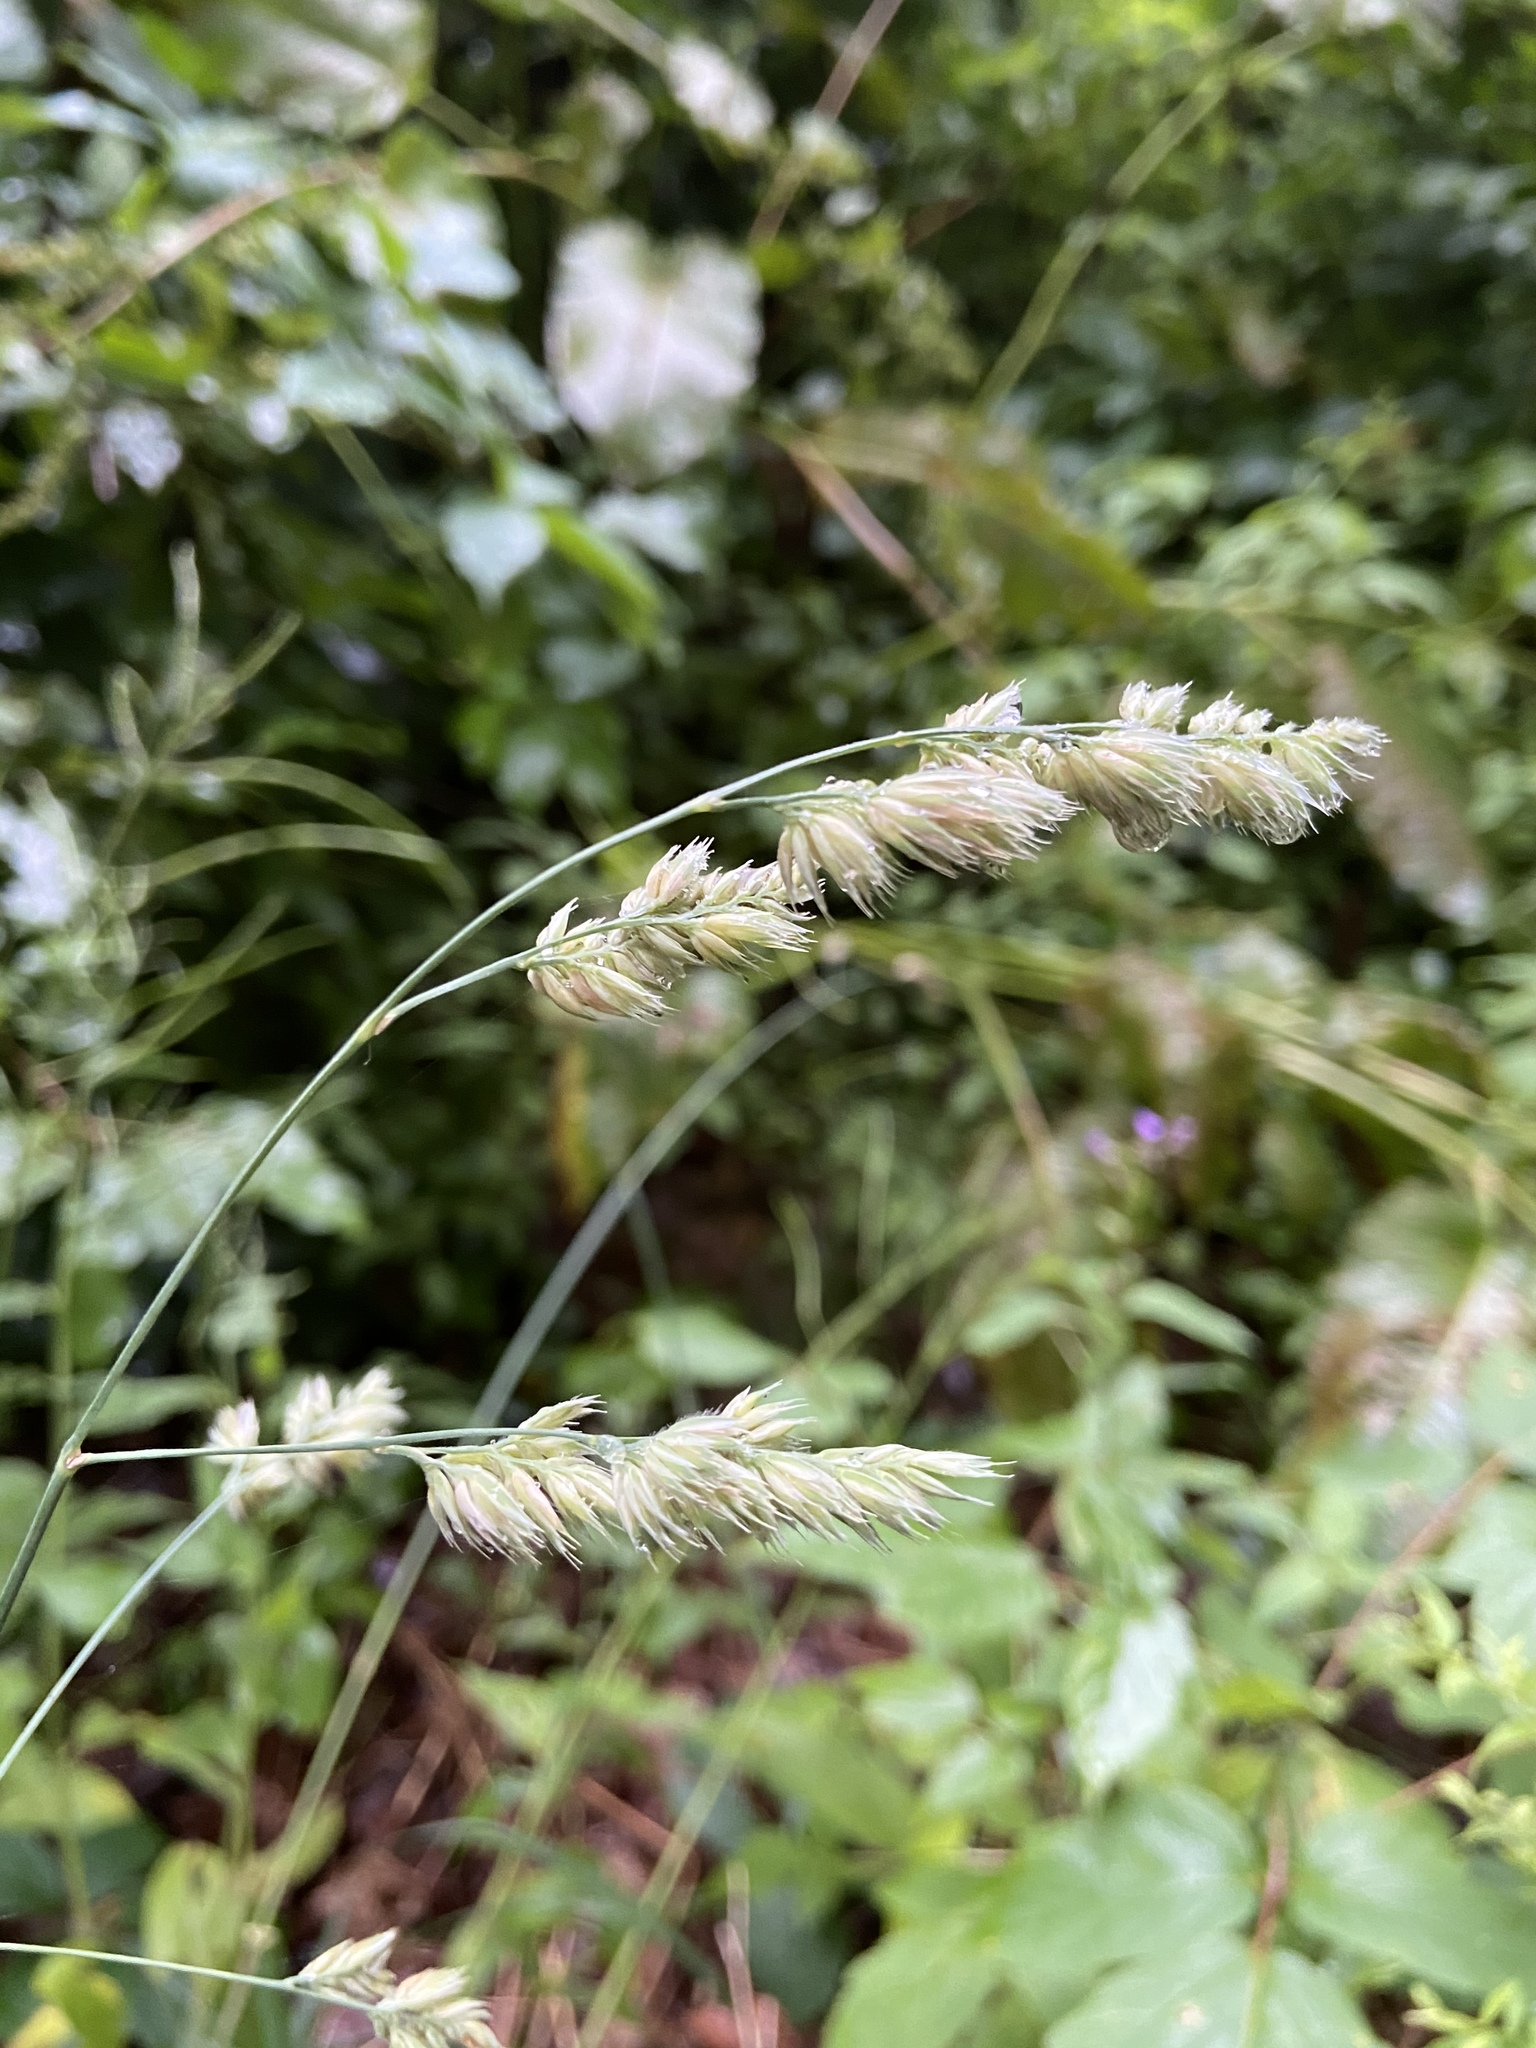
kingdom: Plantae
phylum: Tracheophyta
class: Liliopsida
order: Poales
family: Poaceae
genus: Dactylis
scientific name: Dactylis glomerata
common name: Orchardgrass
